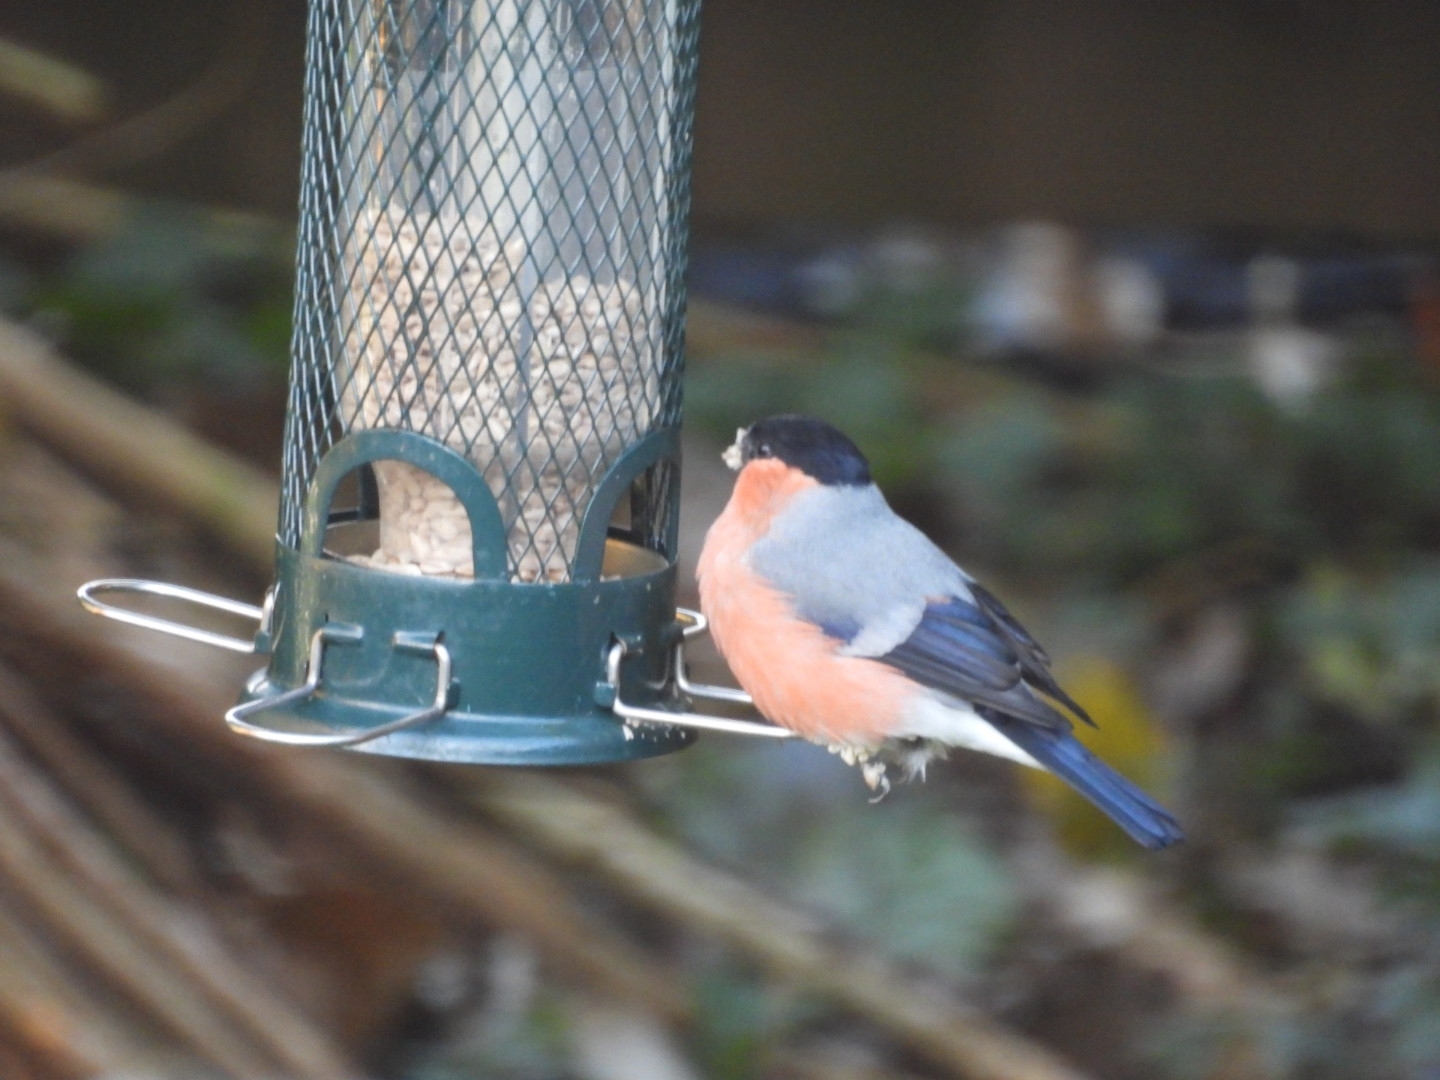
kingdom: Animalia
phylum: Chordata
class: Aves
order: Passeriformes
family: Fringillidae
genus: Pyrrhula
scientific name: Pyrrhula pyrrhula
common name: Eurasian bullfinch
